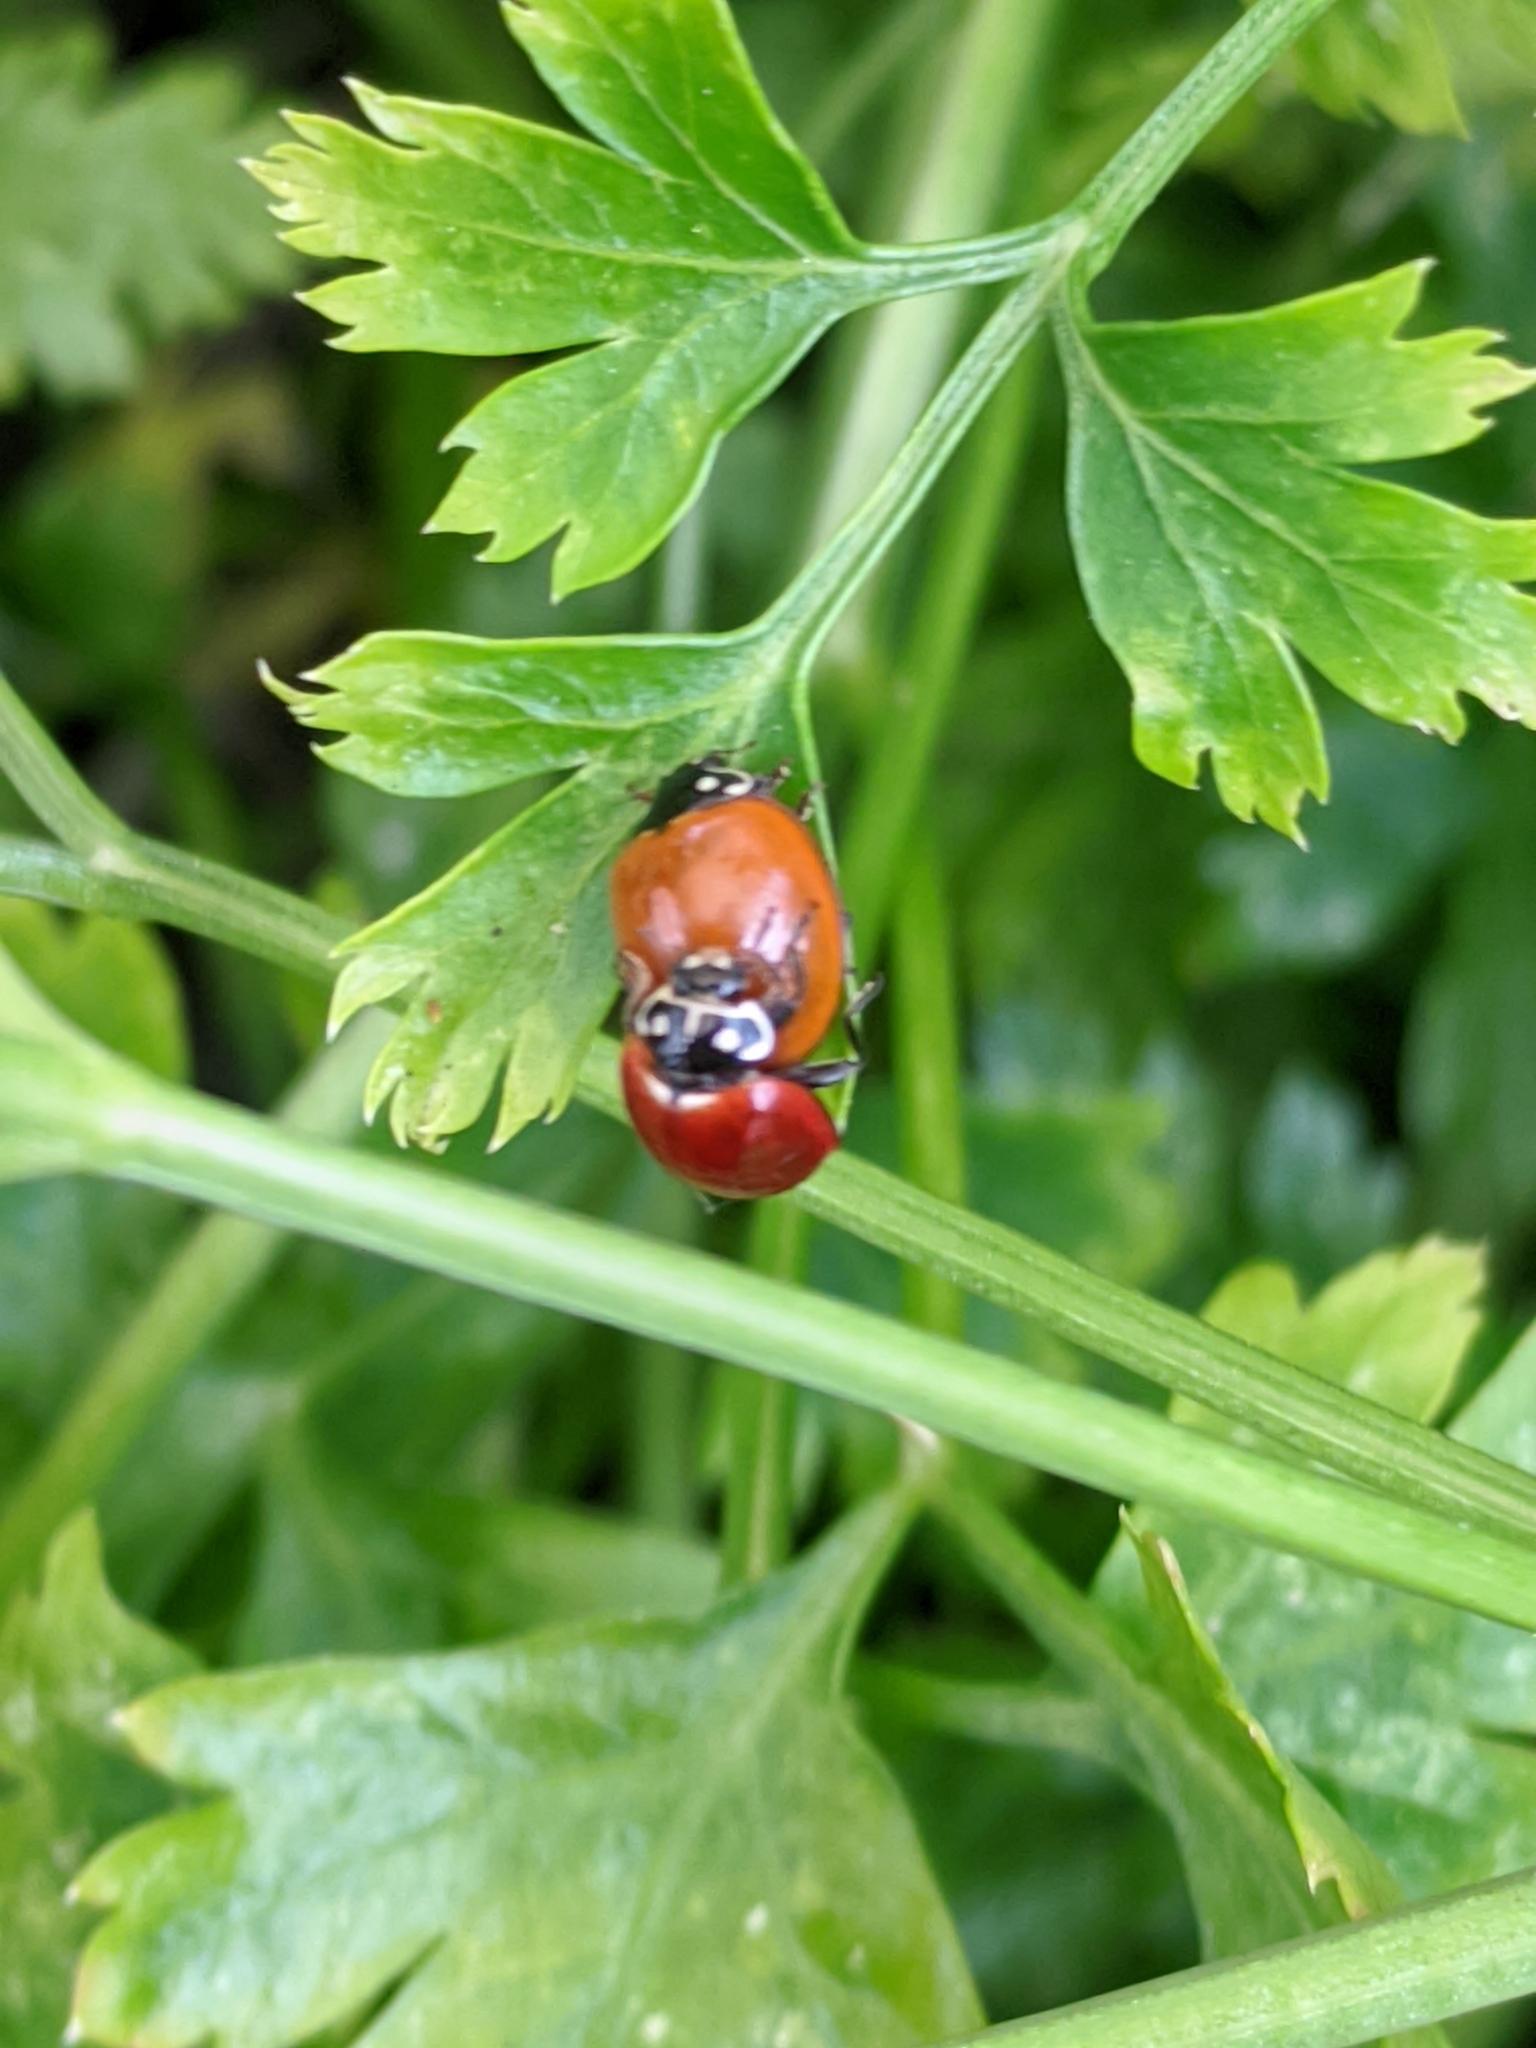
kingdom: Animalia
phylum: Arthropoda
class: Insecta
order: Coleoptera
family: Coccinellidae
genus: Cycloneda
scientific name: Cycloneda sanguinea
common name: Ladybird beetle
